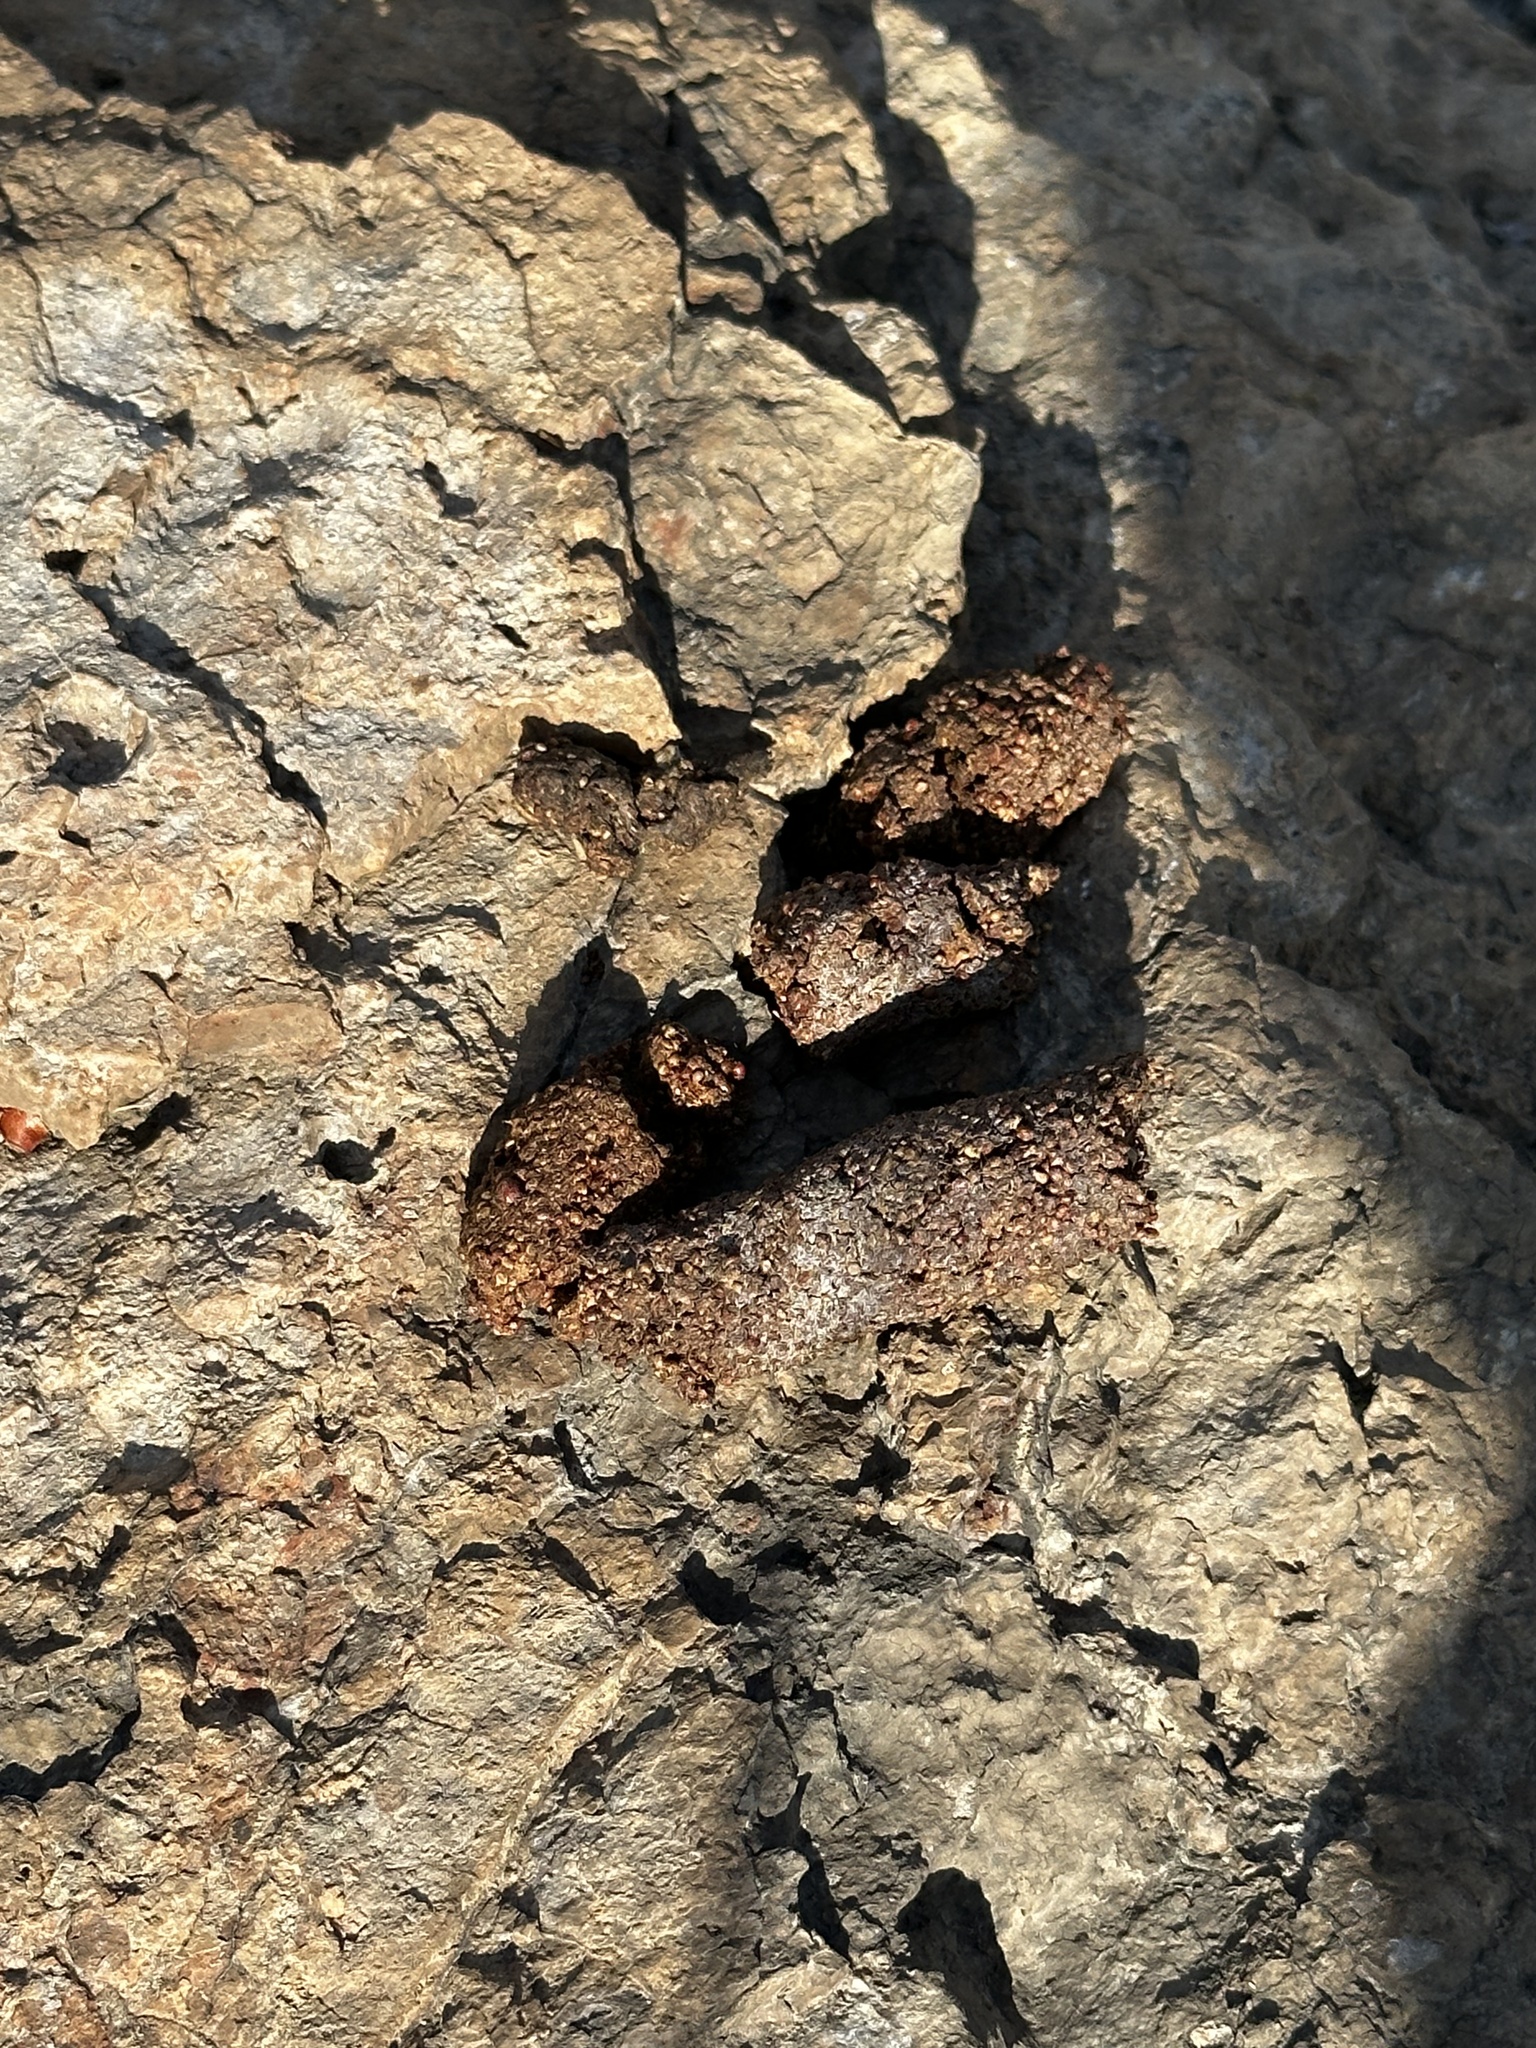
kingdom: Animalia
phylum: Chordata
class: Mammalia
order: Carnivora
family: Procyonidae
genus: Bassariscus
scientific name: Bassariscus astutus
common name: Ringtail
